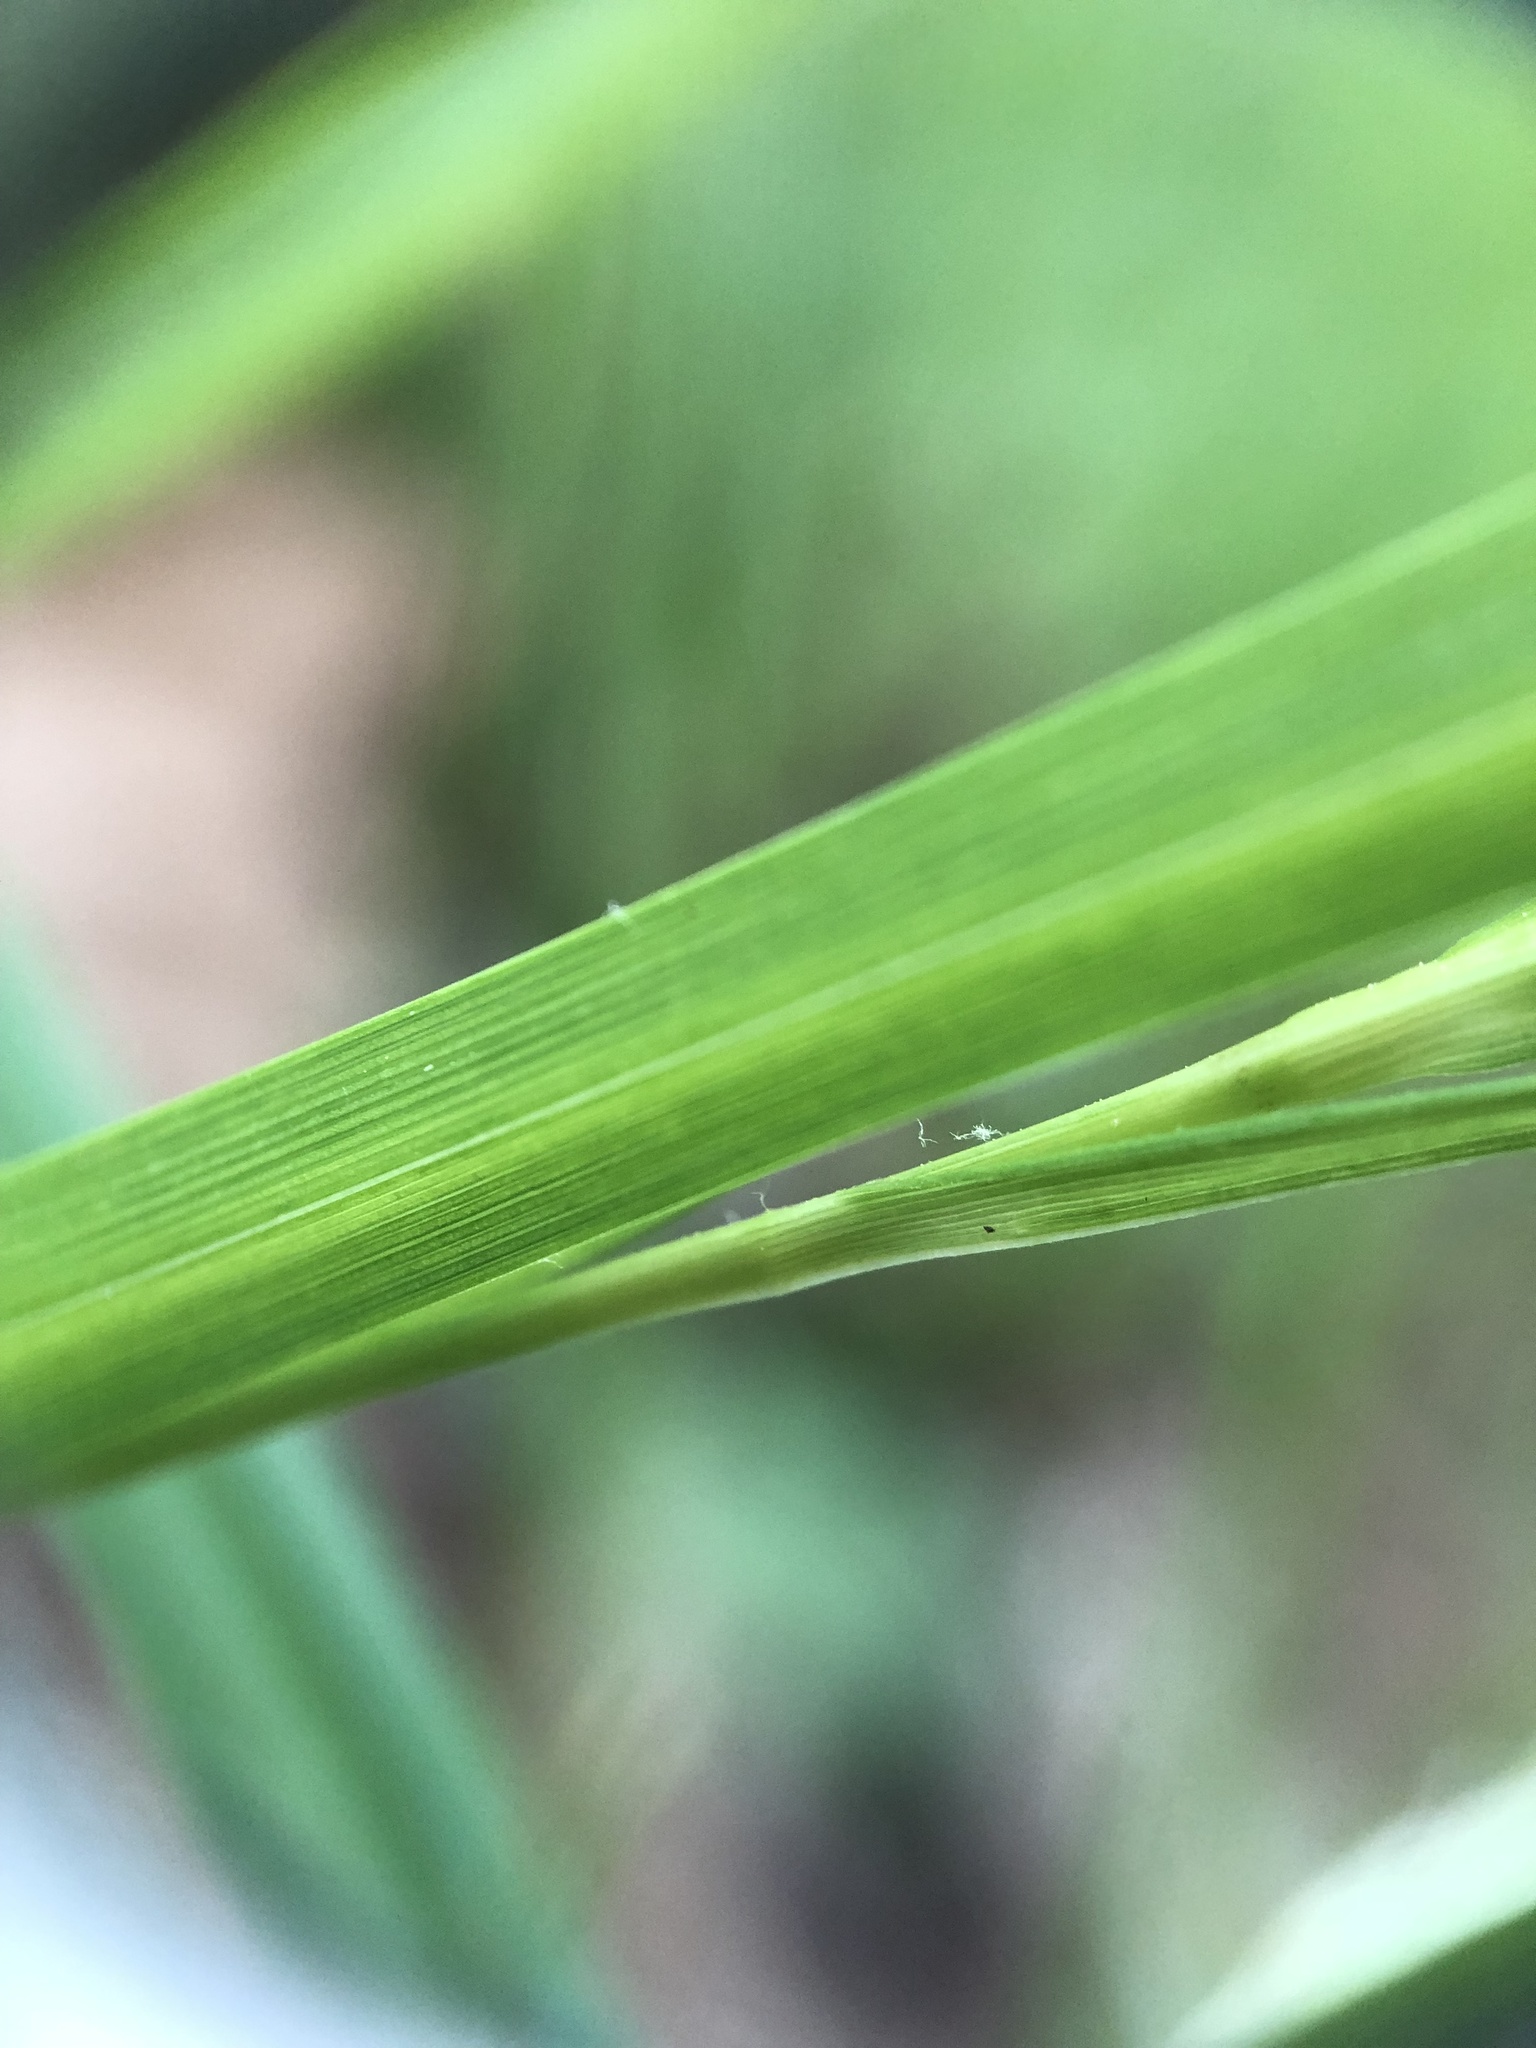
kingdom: Plantae
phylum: Tracheophyta
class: Liliopsida
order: Poales
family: Cyperaceae
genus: Carex
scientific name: Carex intumescens
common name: Greater bladder sedge
